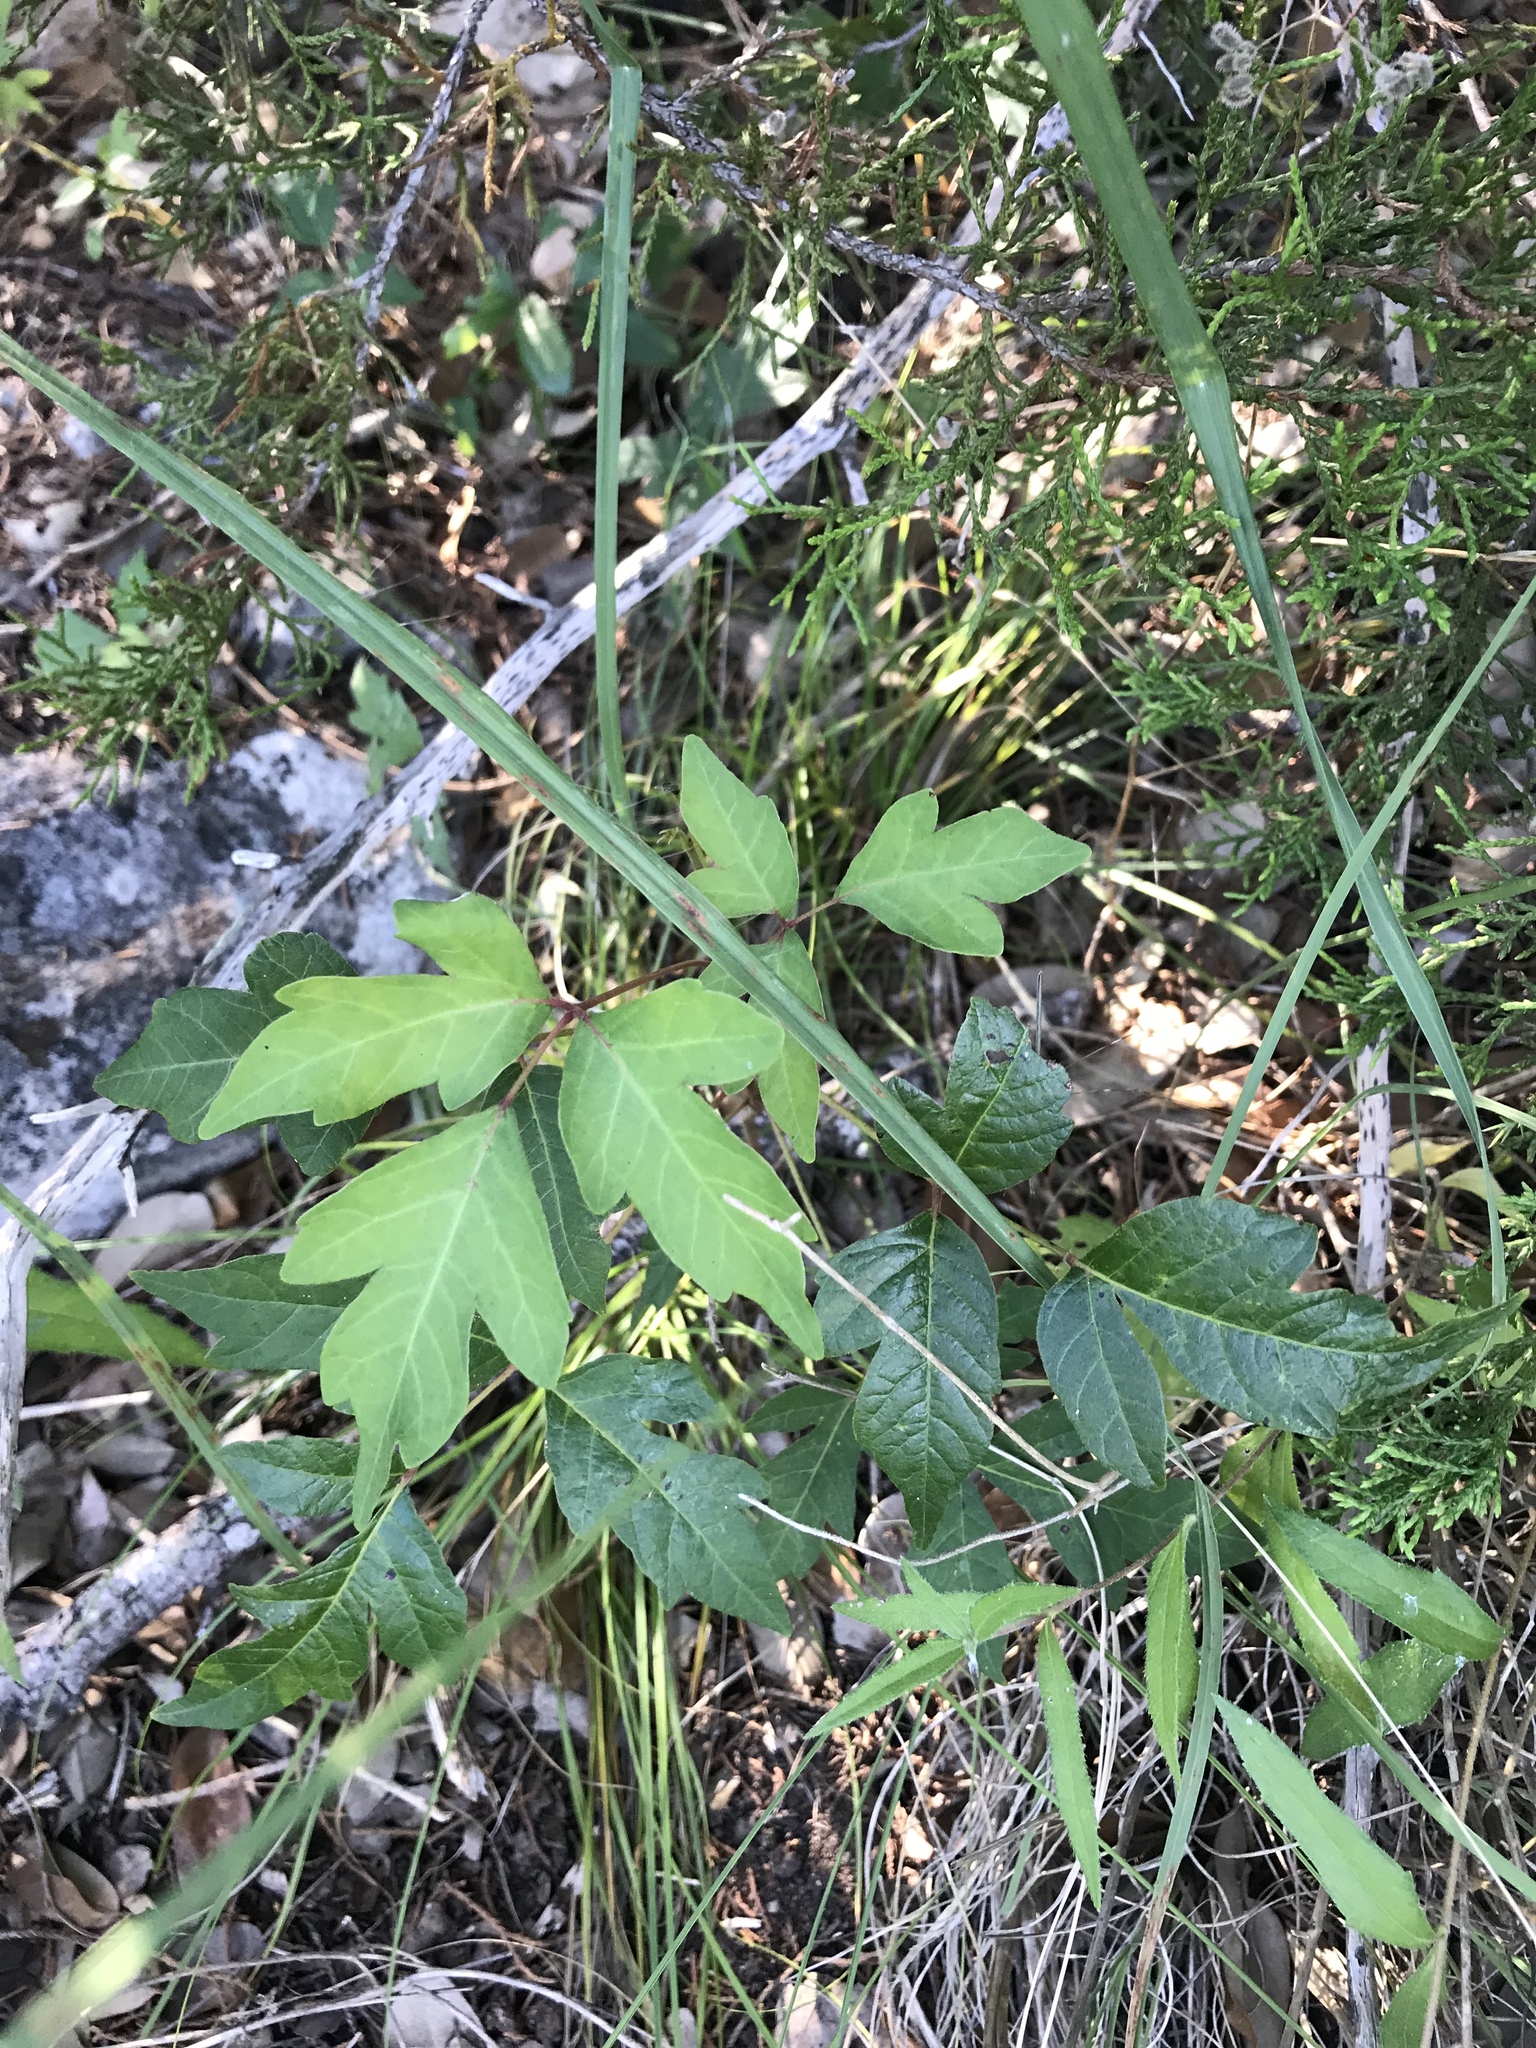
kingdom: Plantae
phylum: Tracheophyta
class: Magnoliopsida
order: Sapindales
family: Anacardiaceae
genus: Toxicodendron
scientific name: Toxicodendron radicans
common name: Poison ivy
